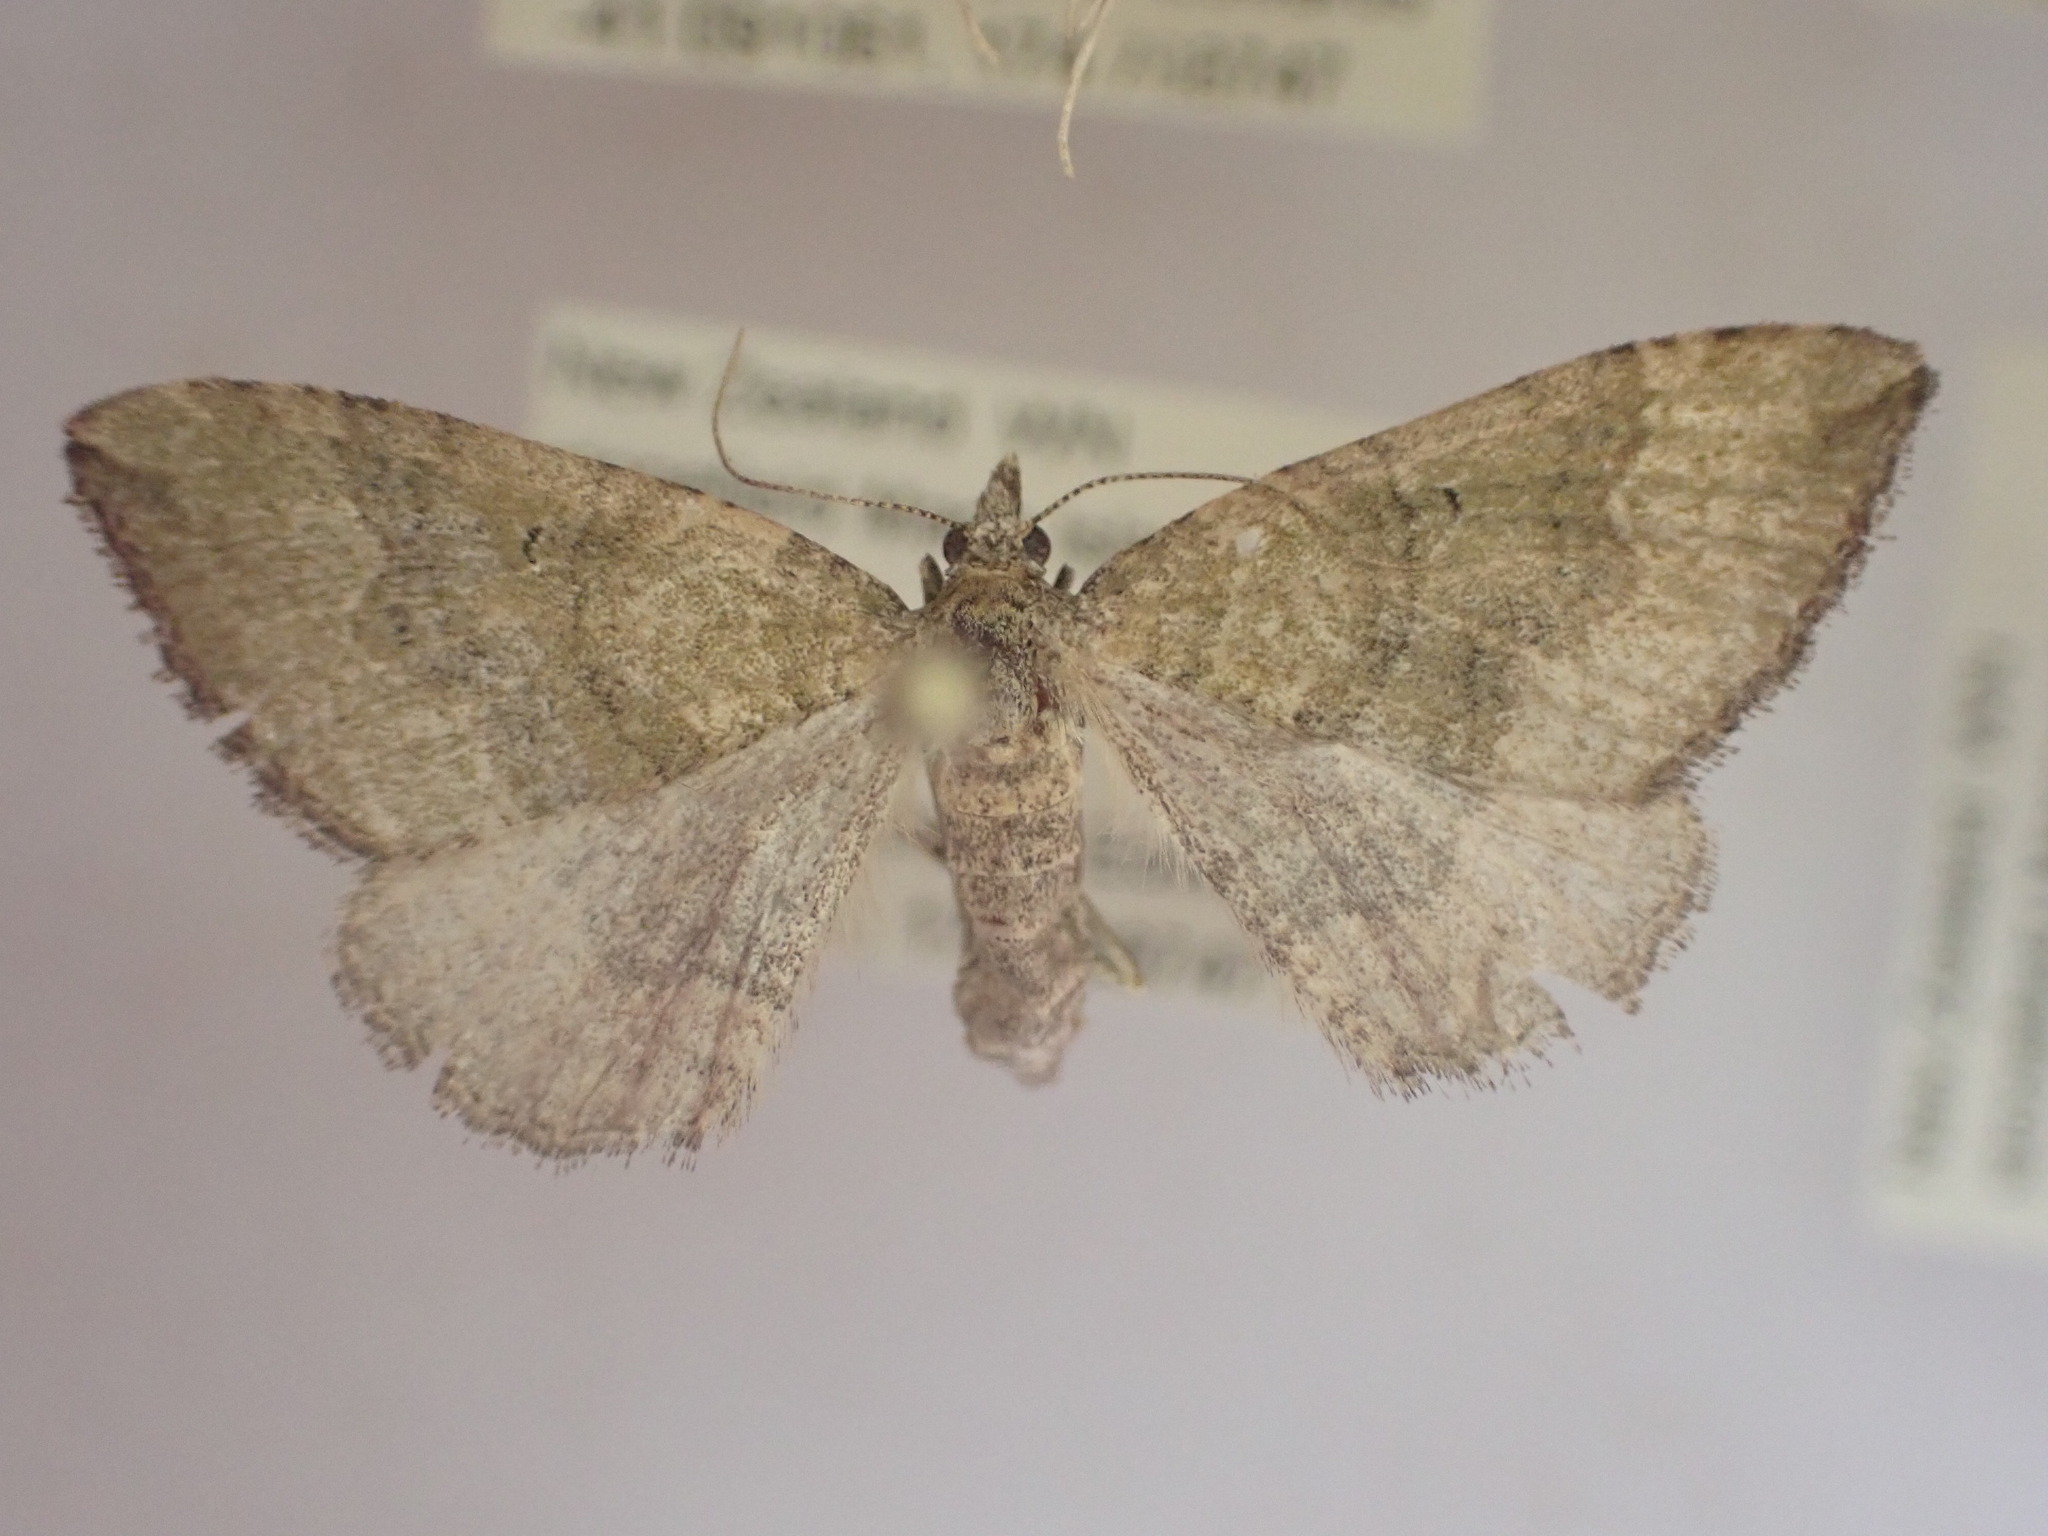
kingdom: Animalia
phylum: Arthropoda
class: Insecta
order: Lepidoptera
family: Geometridae
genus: Epyaxa
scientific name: Epyaxa rosearia
